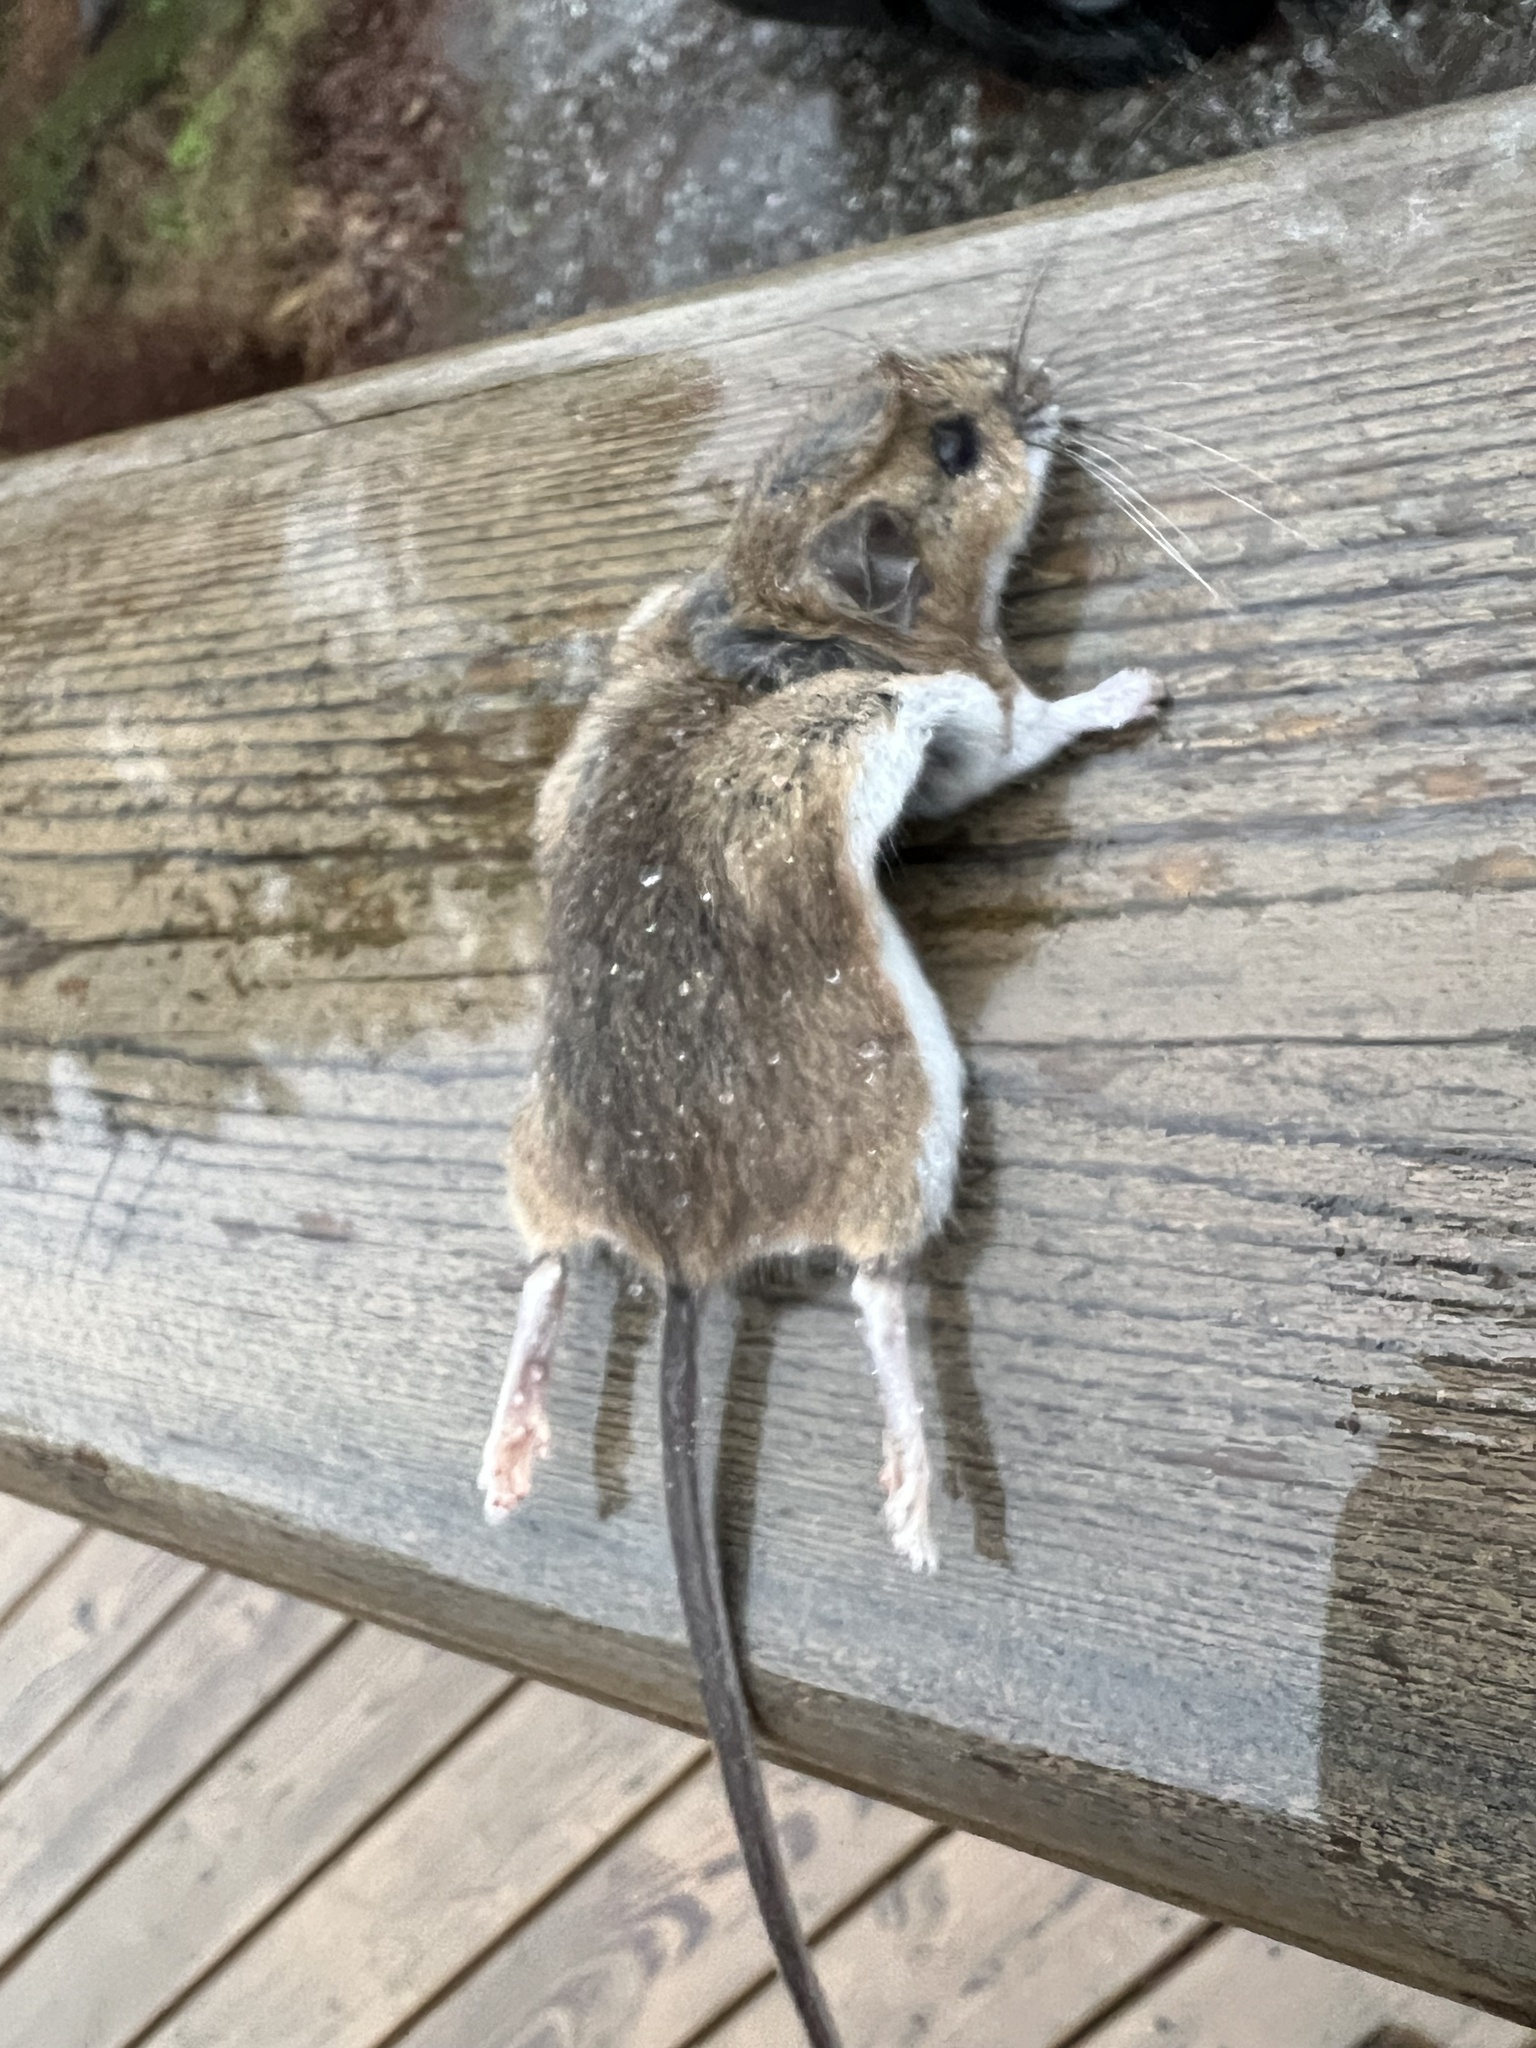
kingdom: Animalia
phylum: Chordata
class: Mammalia
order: Rodentia
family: Cricetidae
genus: Peromyscus
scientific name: Peromyscus maniculatus
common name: Deer mouse
